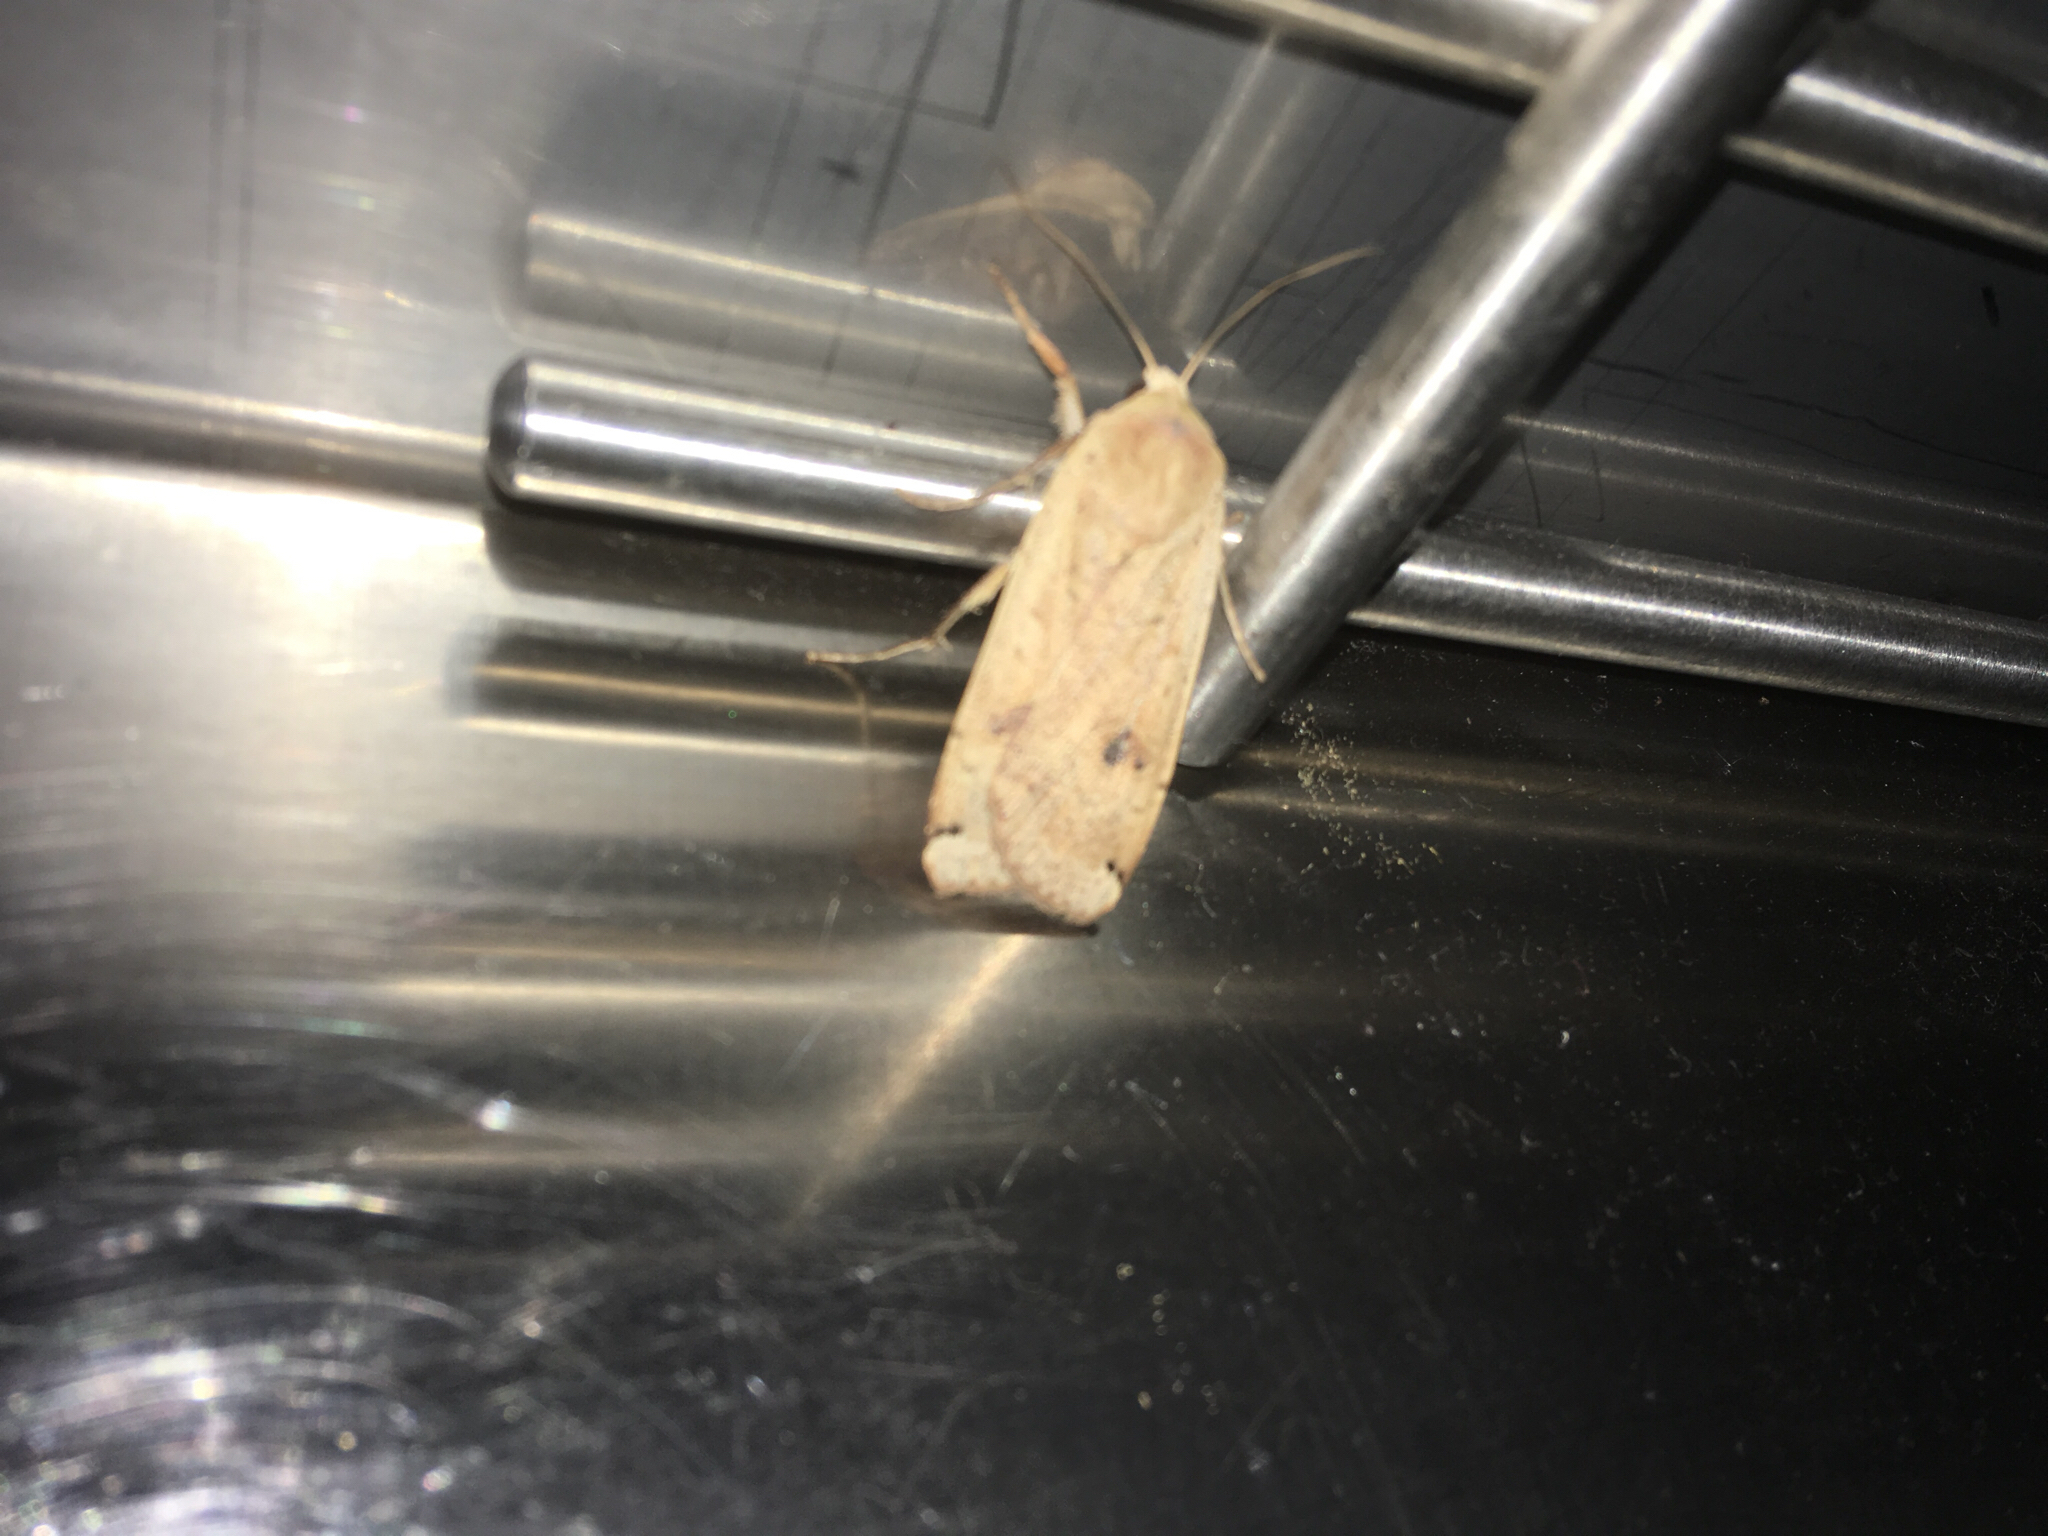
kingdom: Animalia
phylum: Arthropoda
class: Insecta
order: Lepidoptera
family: Noctuidae
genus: Noctua
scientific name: Noctua pronuba
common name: Large yellow underwing
